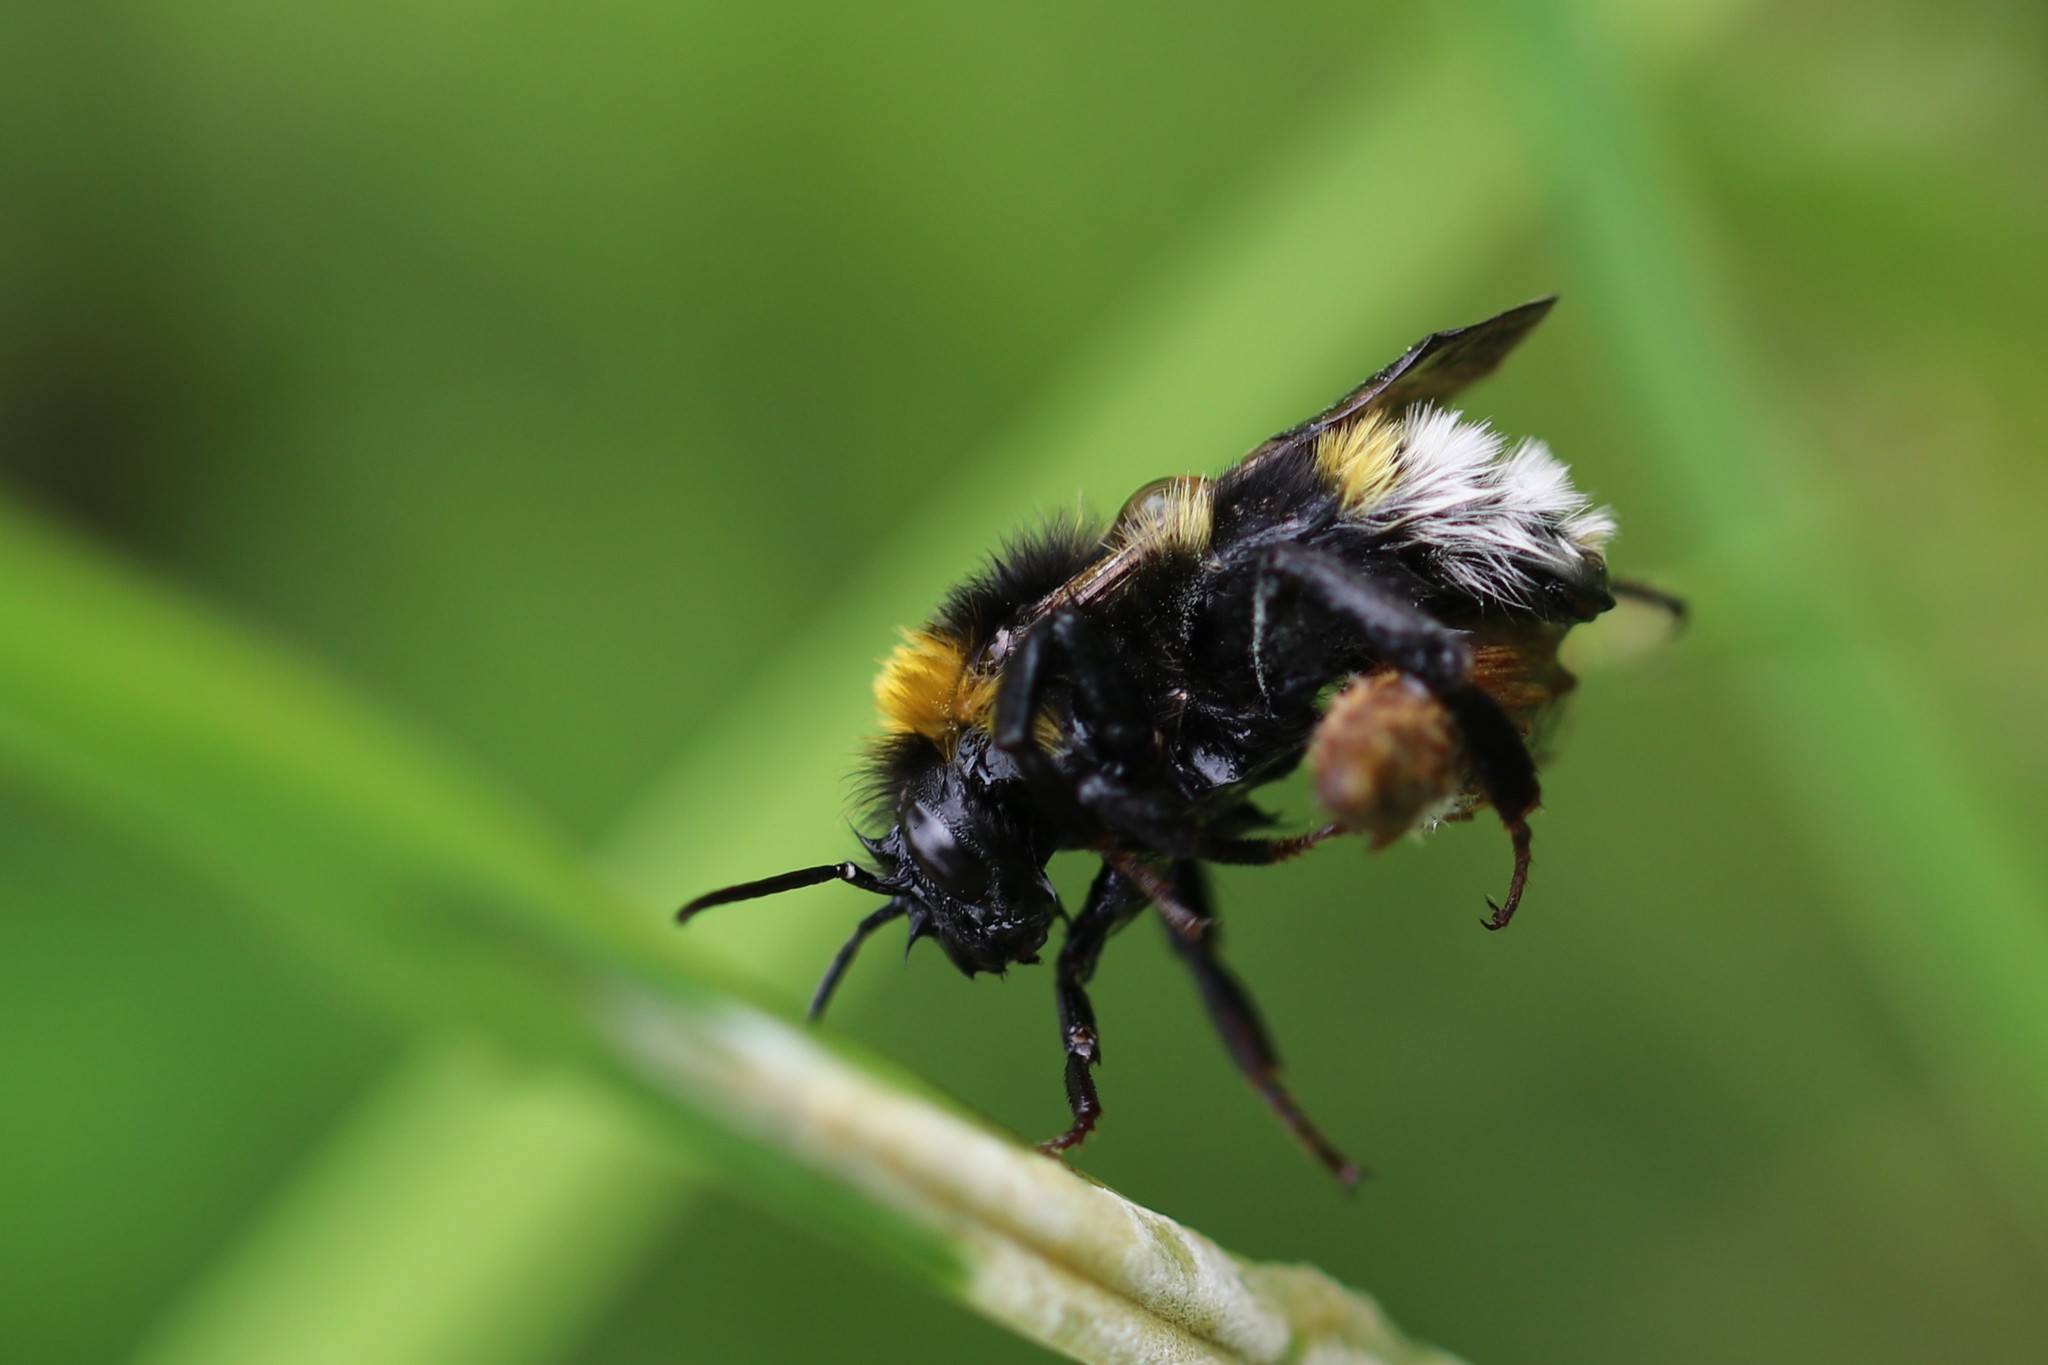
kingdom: Animalia
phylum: Arthropoda
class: Insecta
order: Hymenoptera
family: Apidae
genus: Bombus
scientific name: Bombus vestalis
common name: Vestal cuckoo bee
